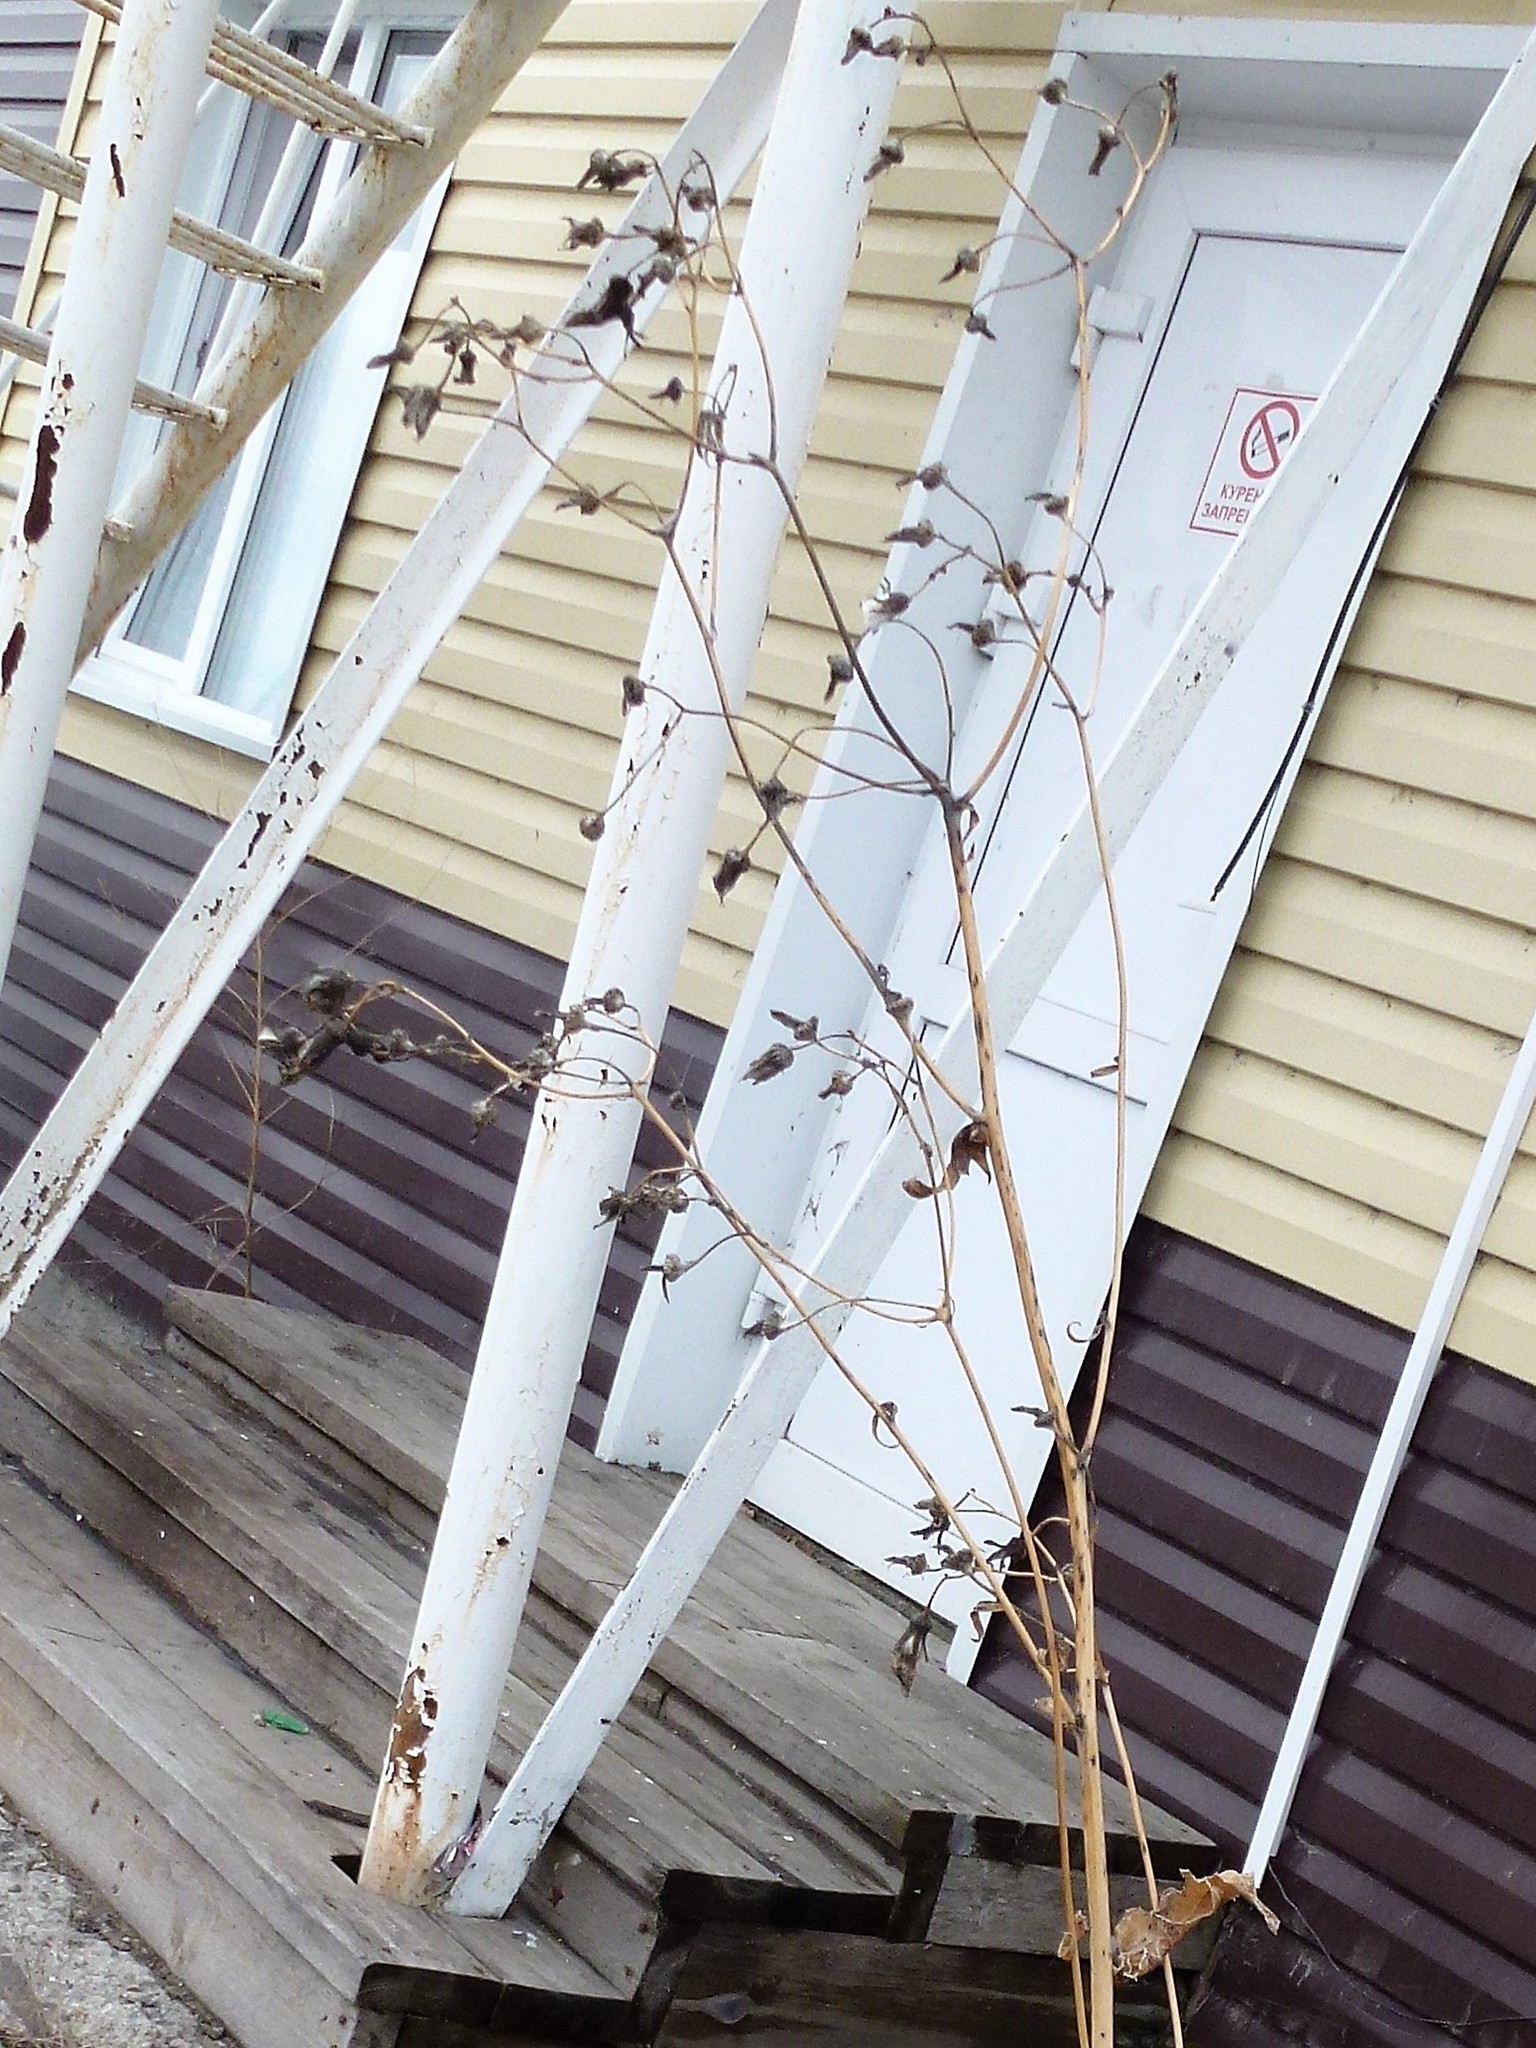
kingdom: Plantae
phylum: Tracheophyta
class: Magnoliopsida
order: Asterales
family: Asteraceae
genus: Sonchus
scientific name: Sonchus oleraceus
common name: Common sowthistle
